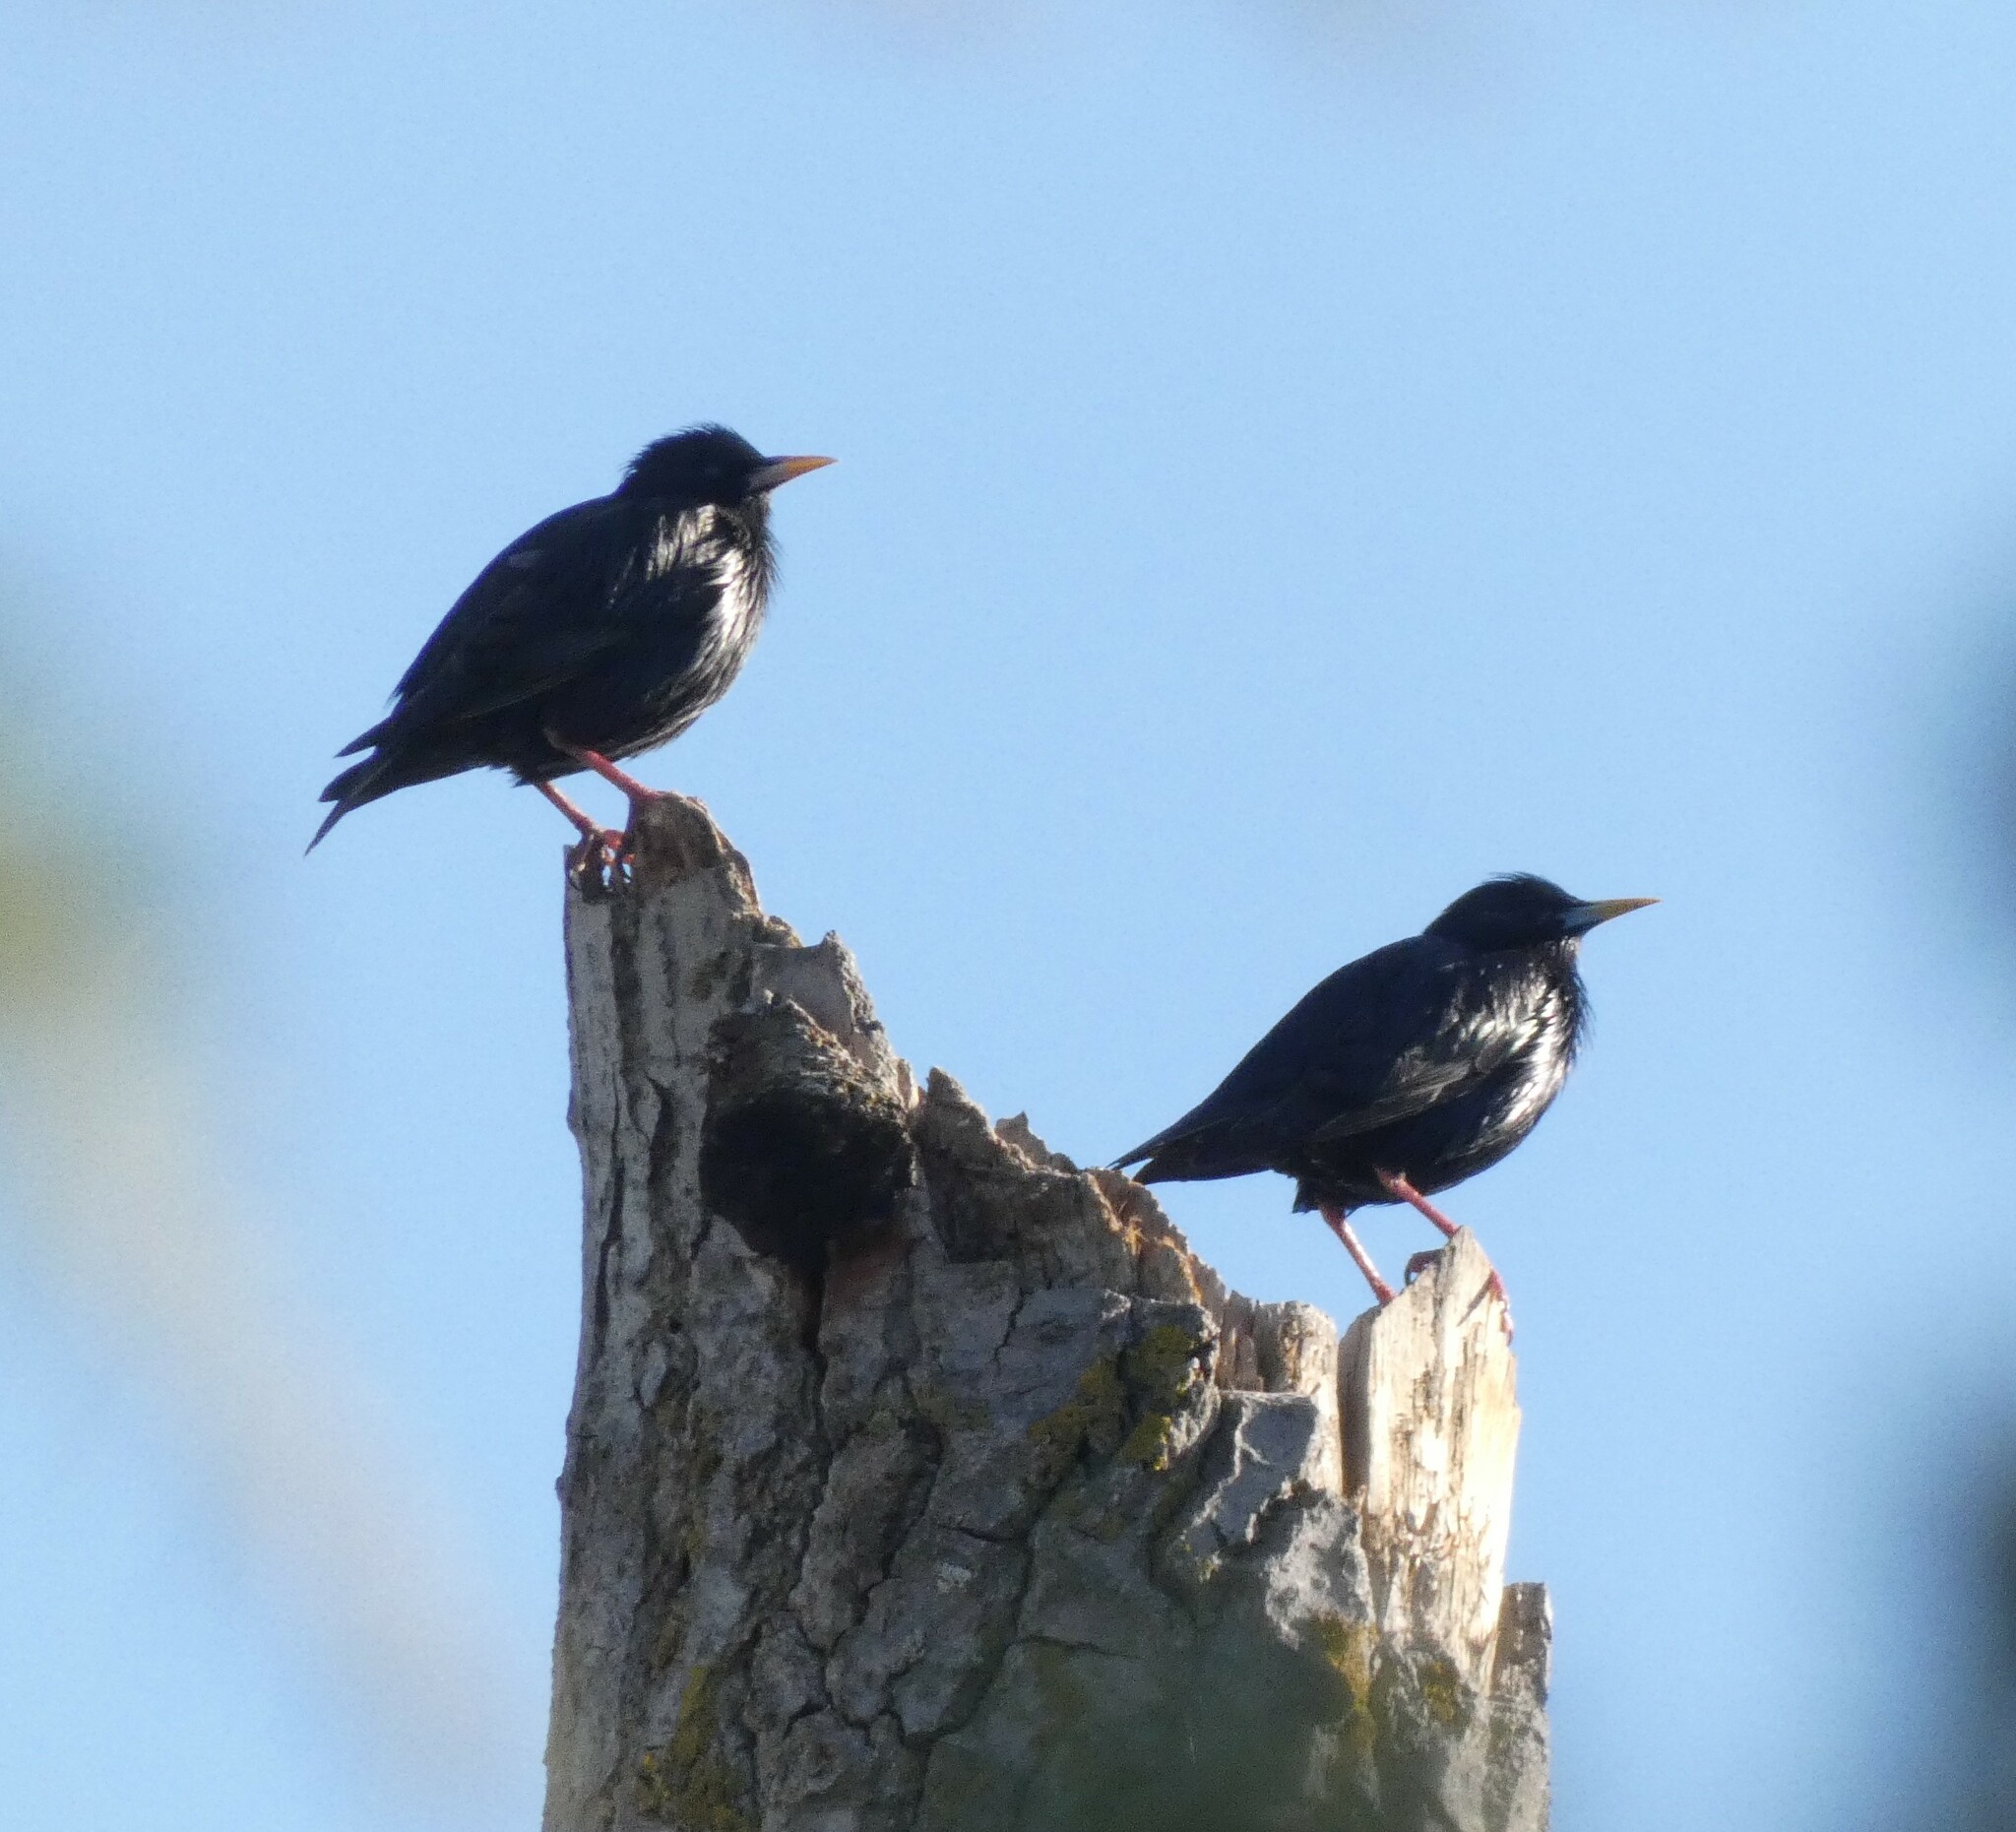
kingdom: Animalia
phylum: Chordata
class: Aves
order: Passeriformes
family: Sturnidae
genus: Sturnus
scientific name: Sturnus unicolor
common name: Spotless starling
